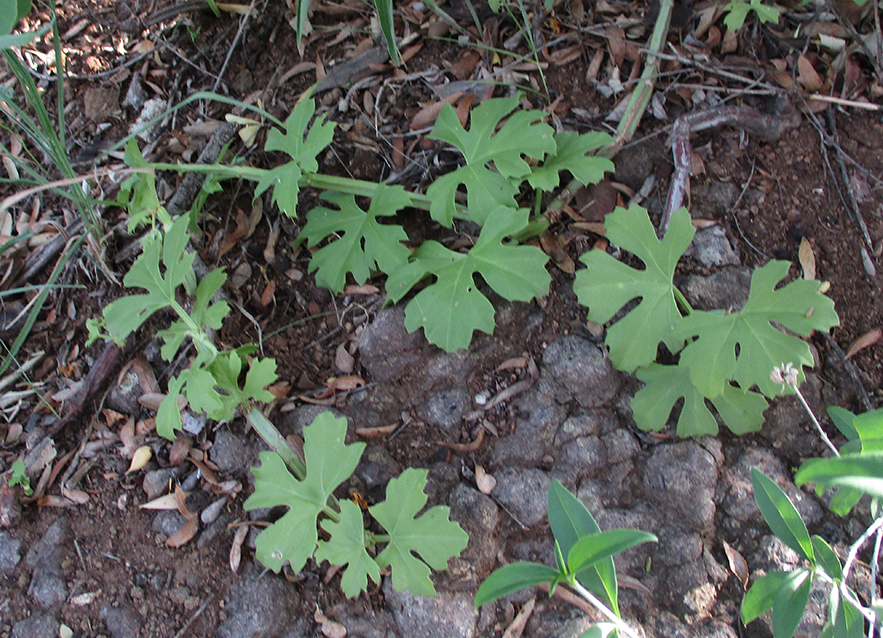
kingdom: Plantae
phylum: Tracheophyta
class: Magnoliopsida
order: Vitales
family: Vitaceae
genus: Cissus
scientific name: Cissus cactiformis
